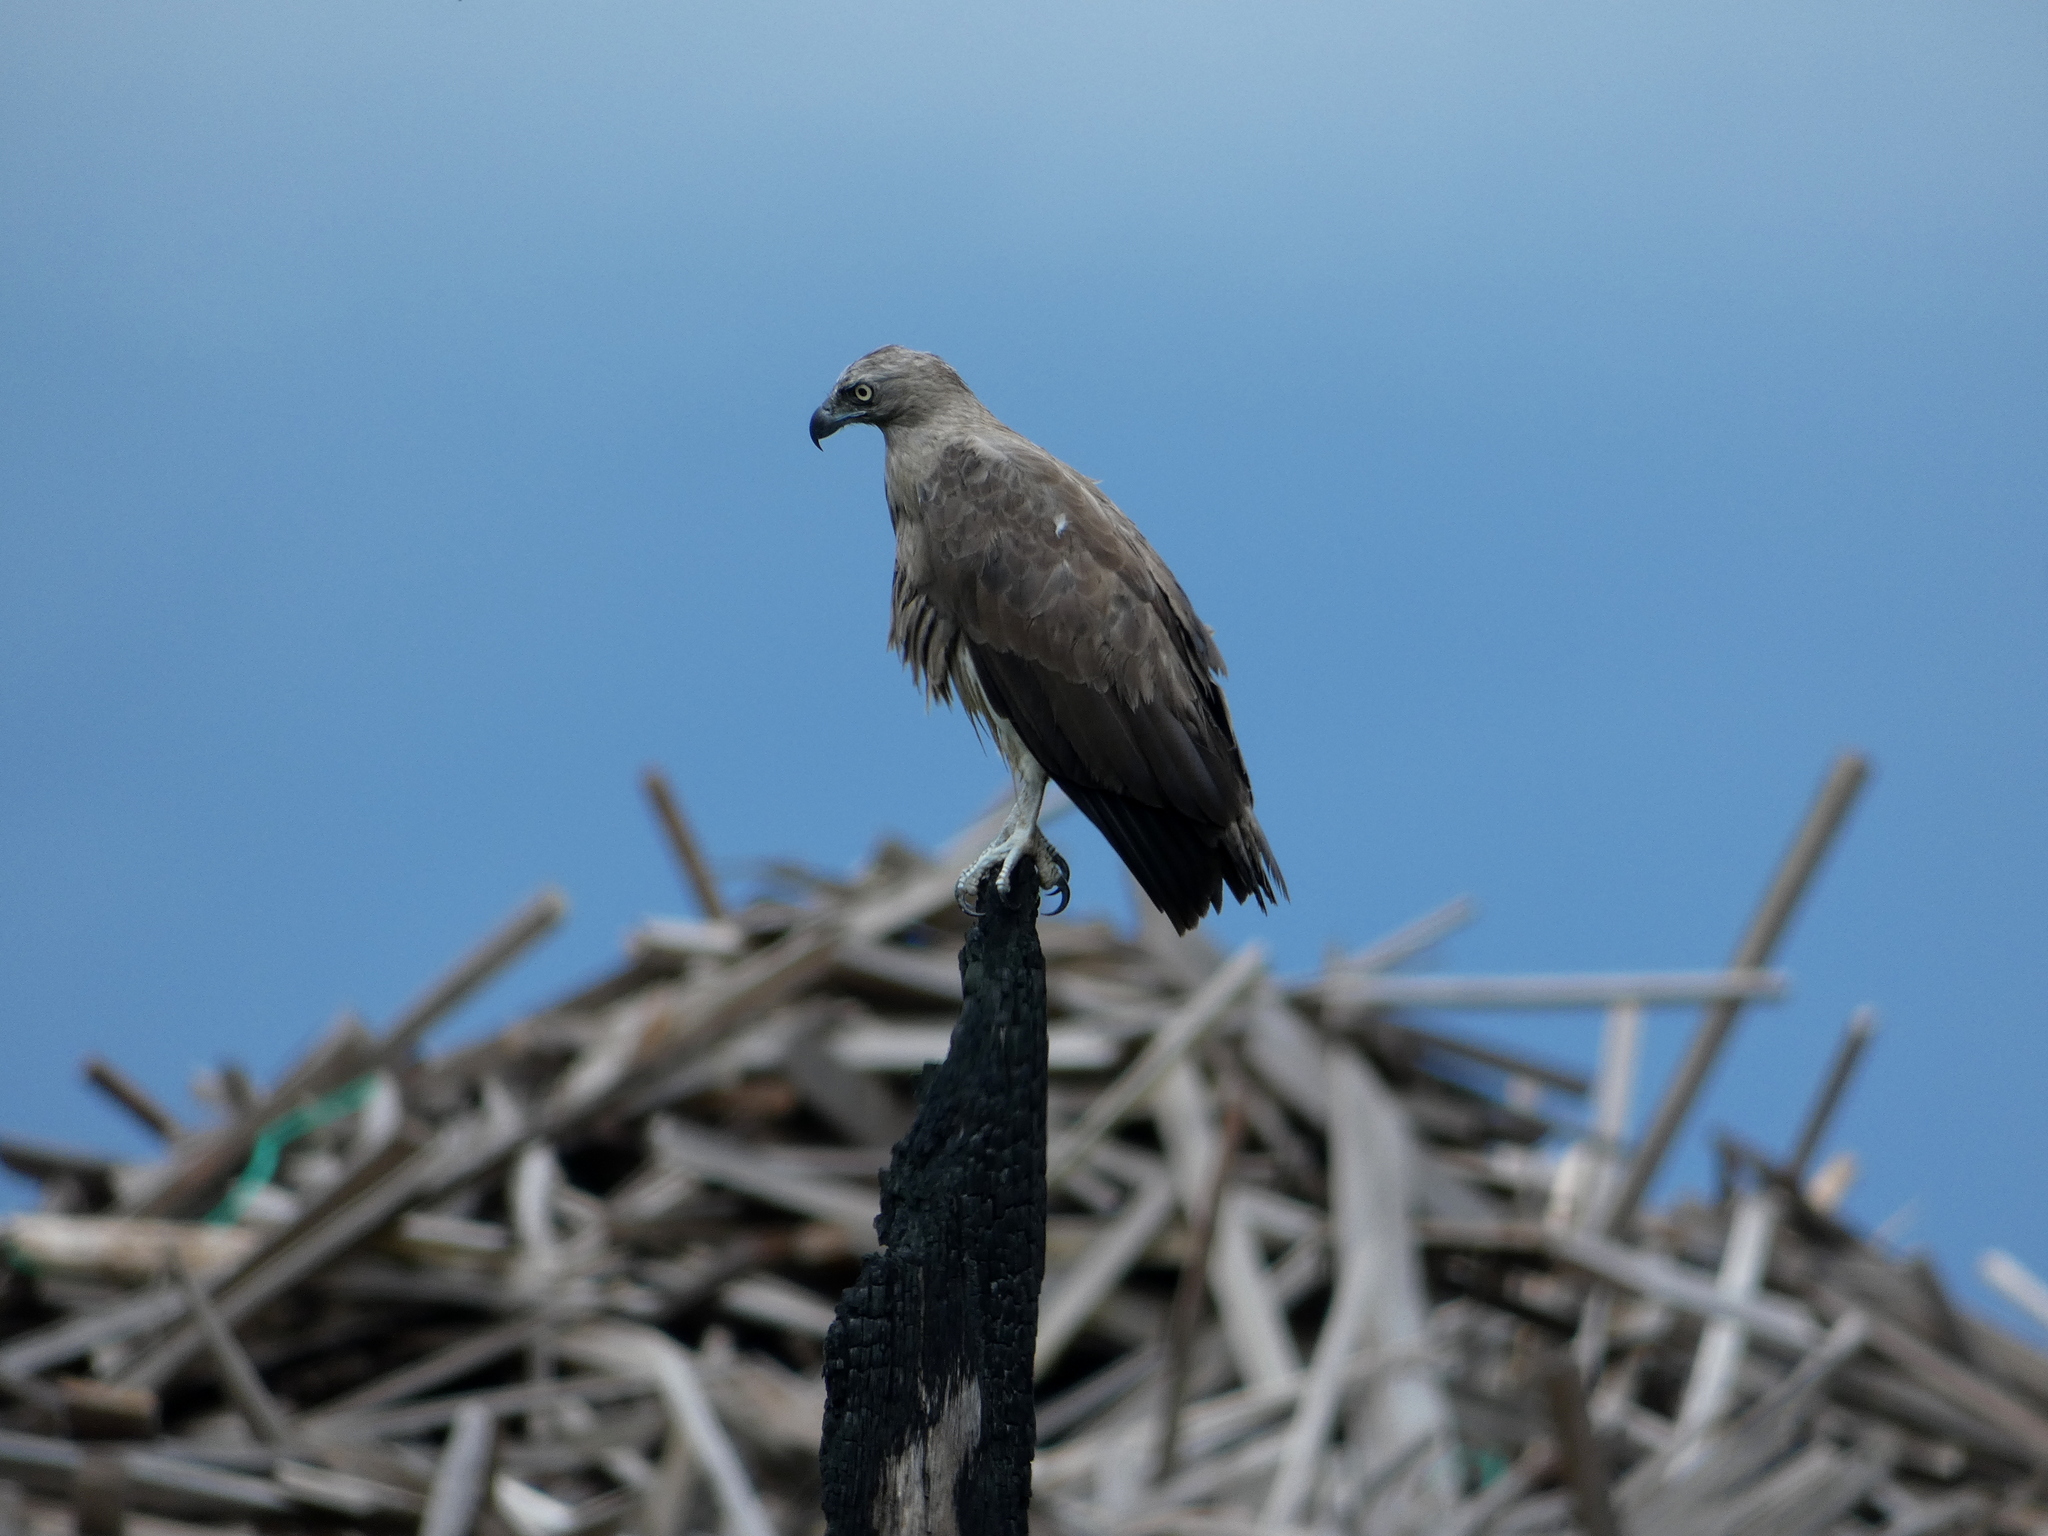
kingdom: Animalia
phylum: Chordata
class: Aves
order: Accipitriformes
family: Accipitridae
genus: Icthyophaga
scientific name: Icthyophaga humilis
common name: Lesser fish-eagle
